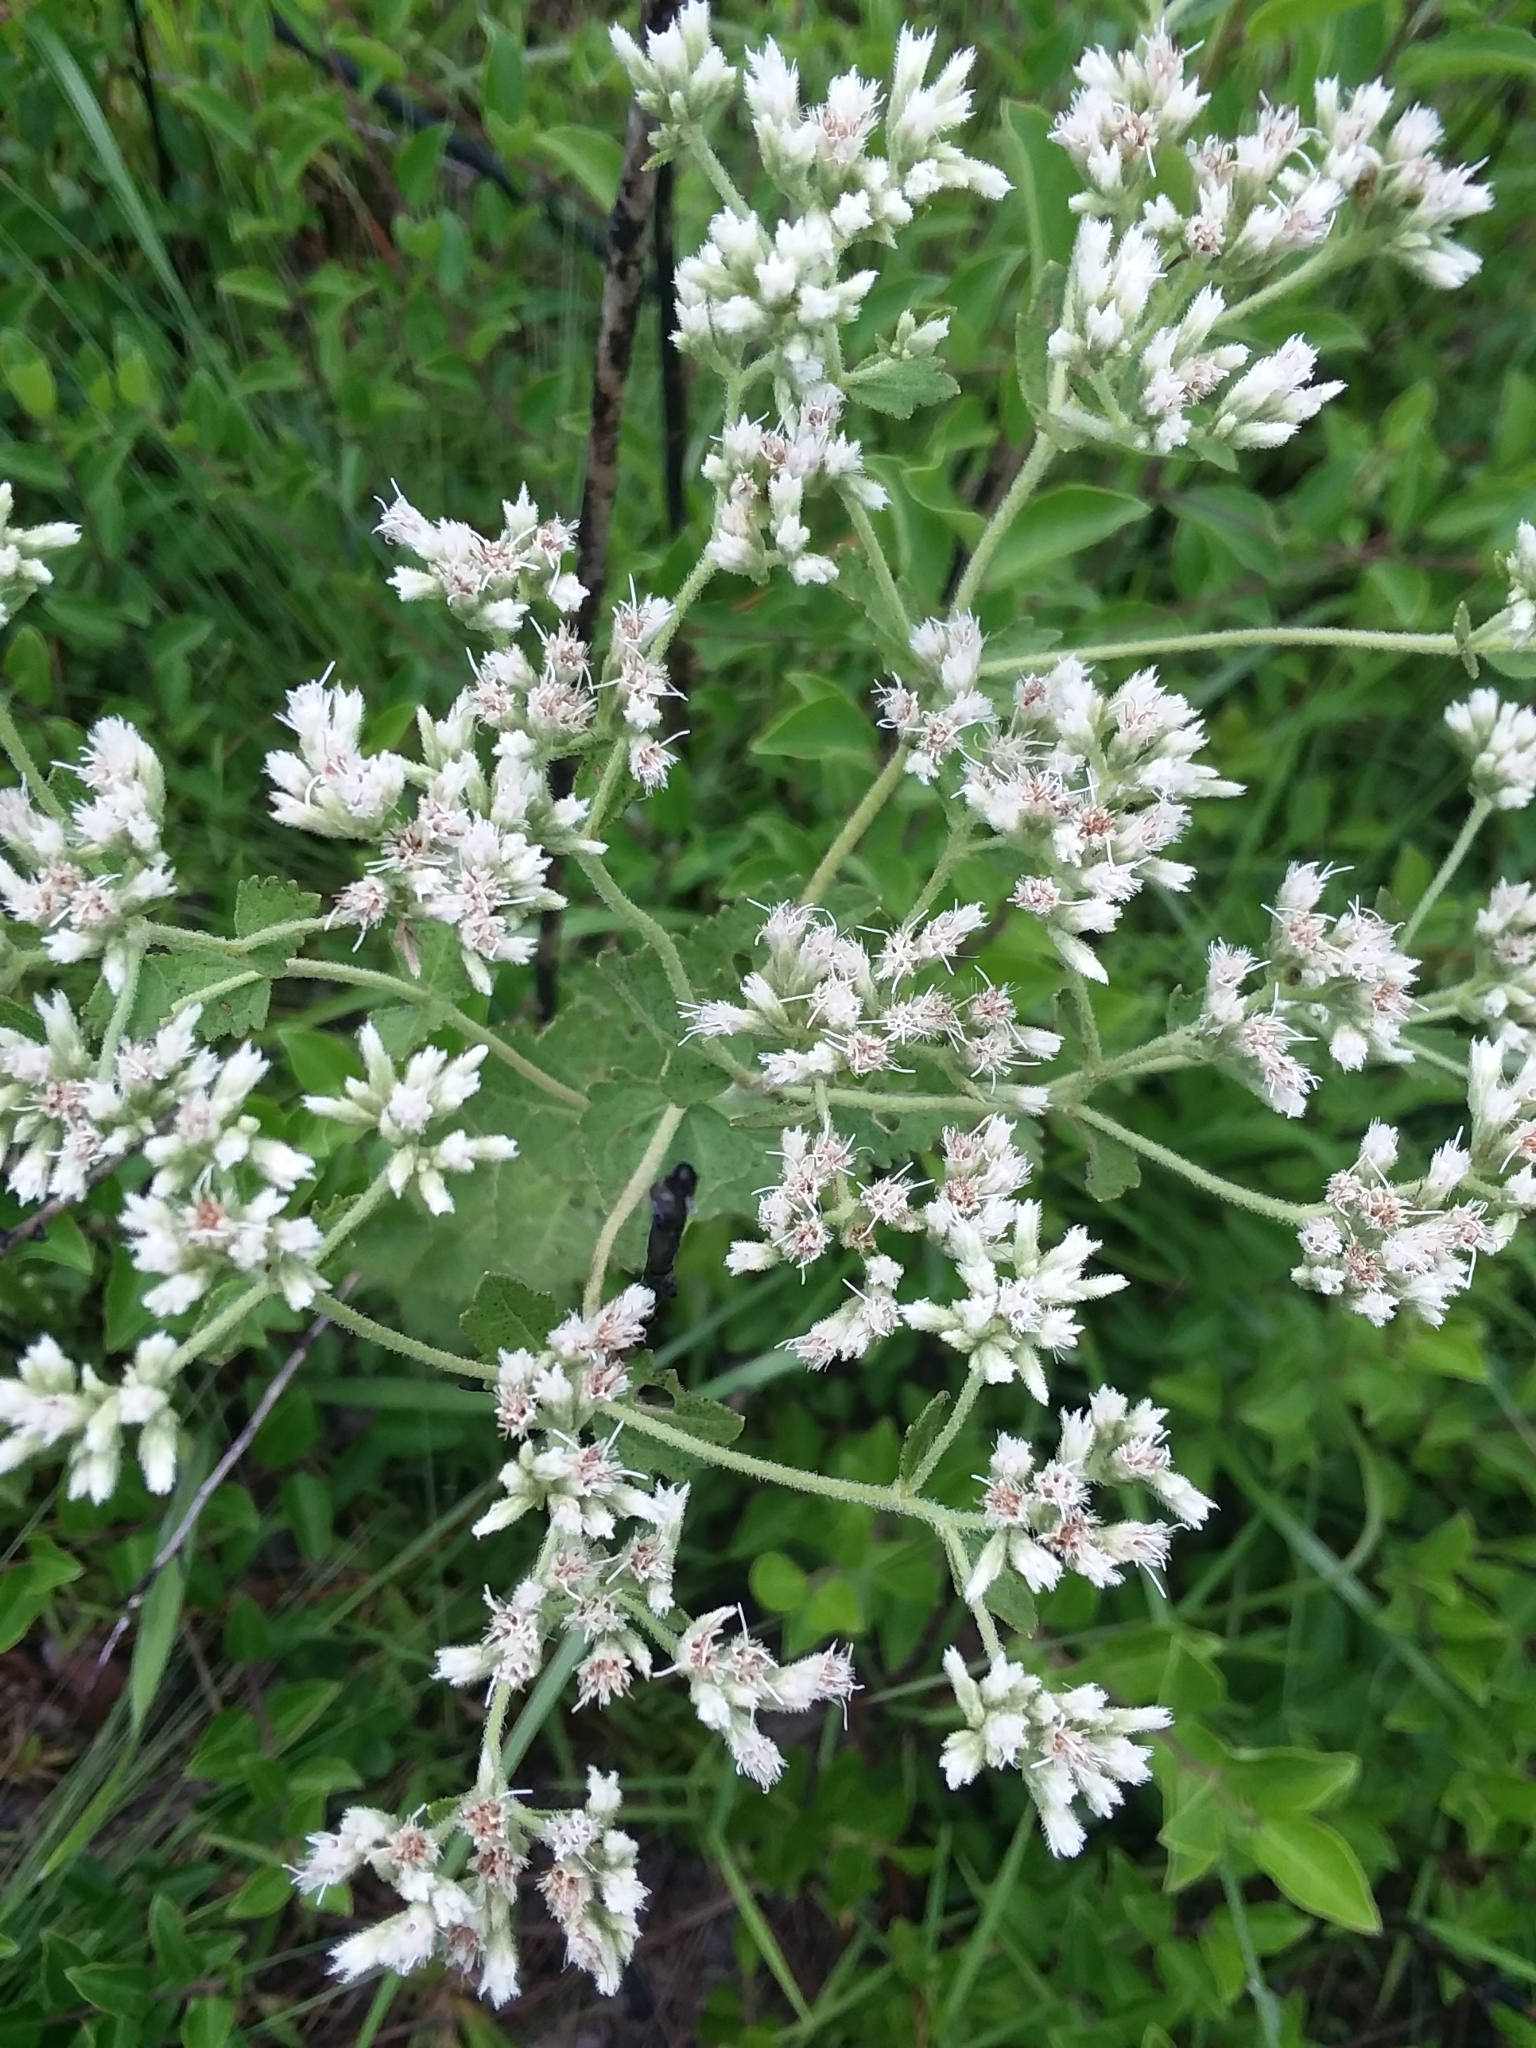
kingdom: Plantae
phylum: Tracheophyta
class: Magnoliopsida
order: Asterales
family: Asteraceae
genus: Eupatorium
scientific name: Eupatorium rotundifolium
